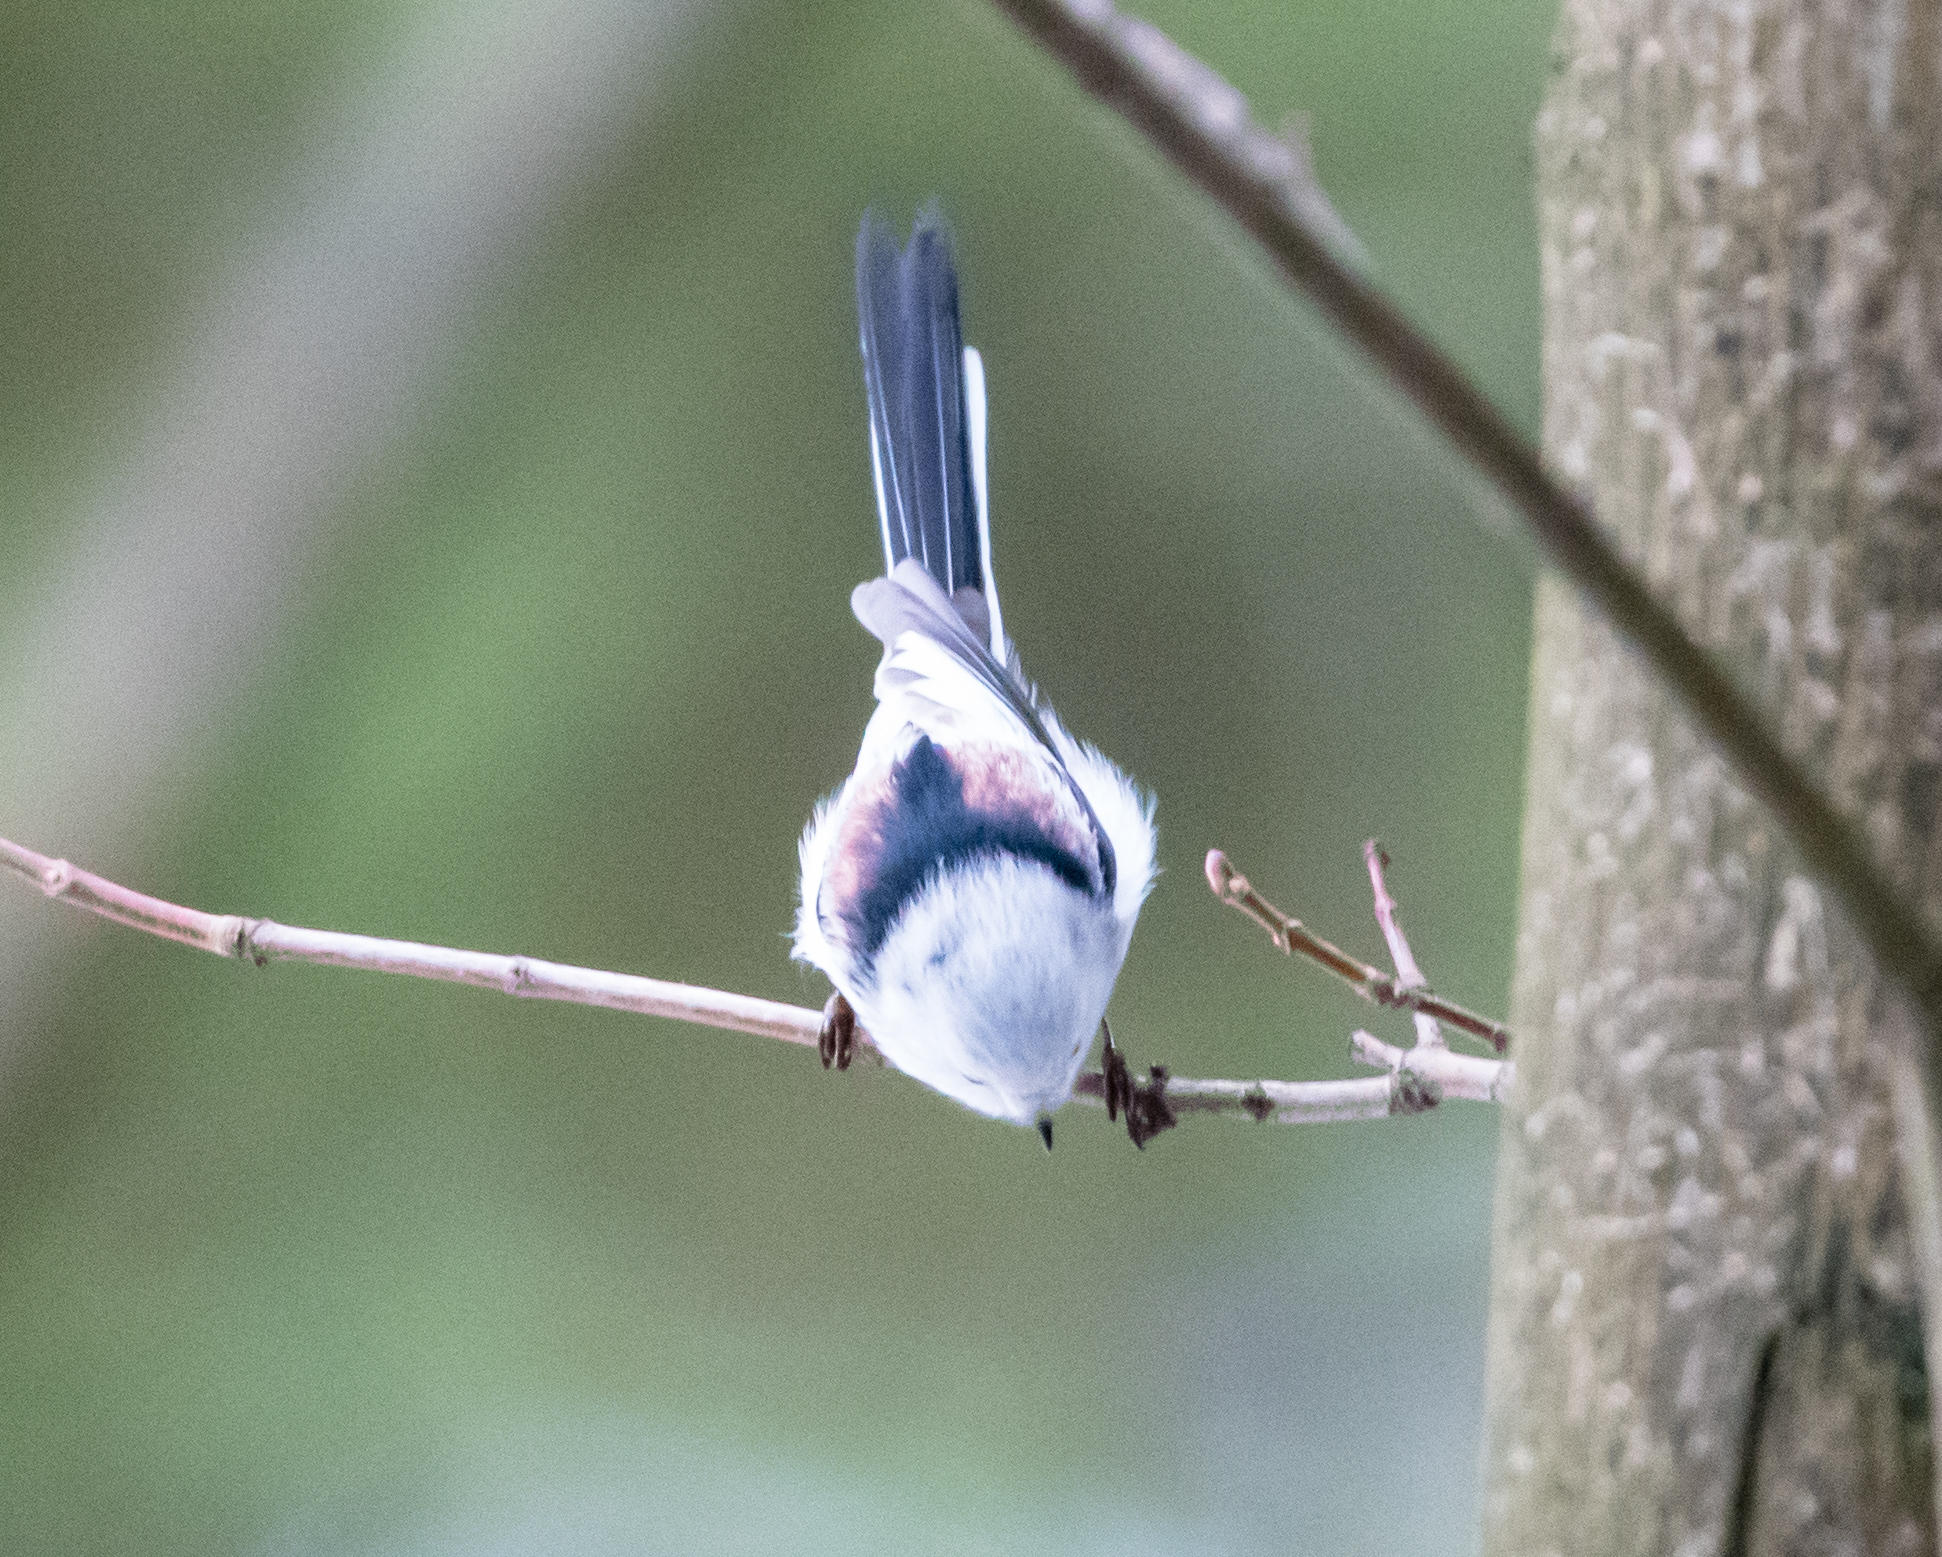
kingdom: Animalia
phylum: Chordata
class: Aves
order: Passeriformes
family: Aegithalidae
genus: Aegithalos
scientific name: Aegithalos caudatus
